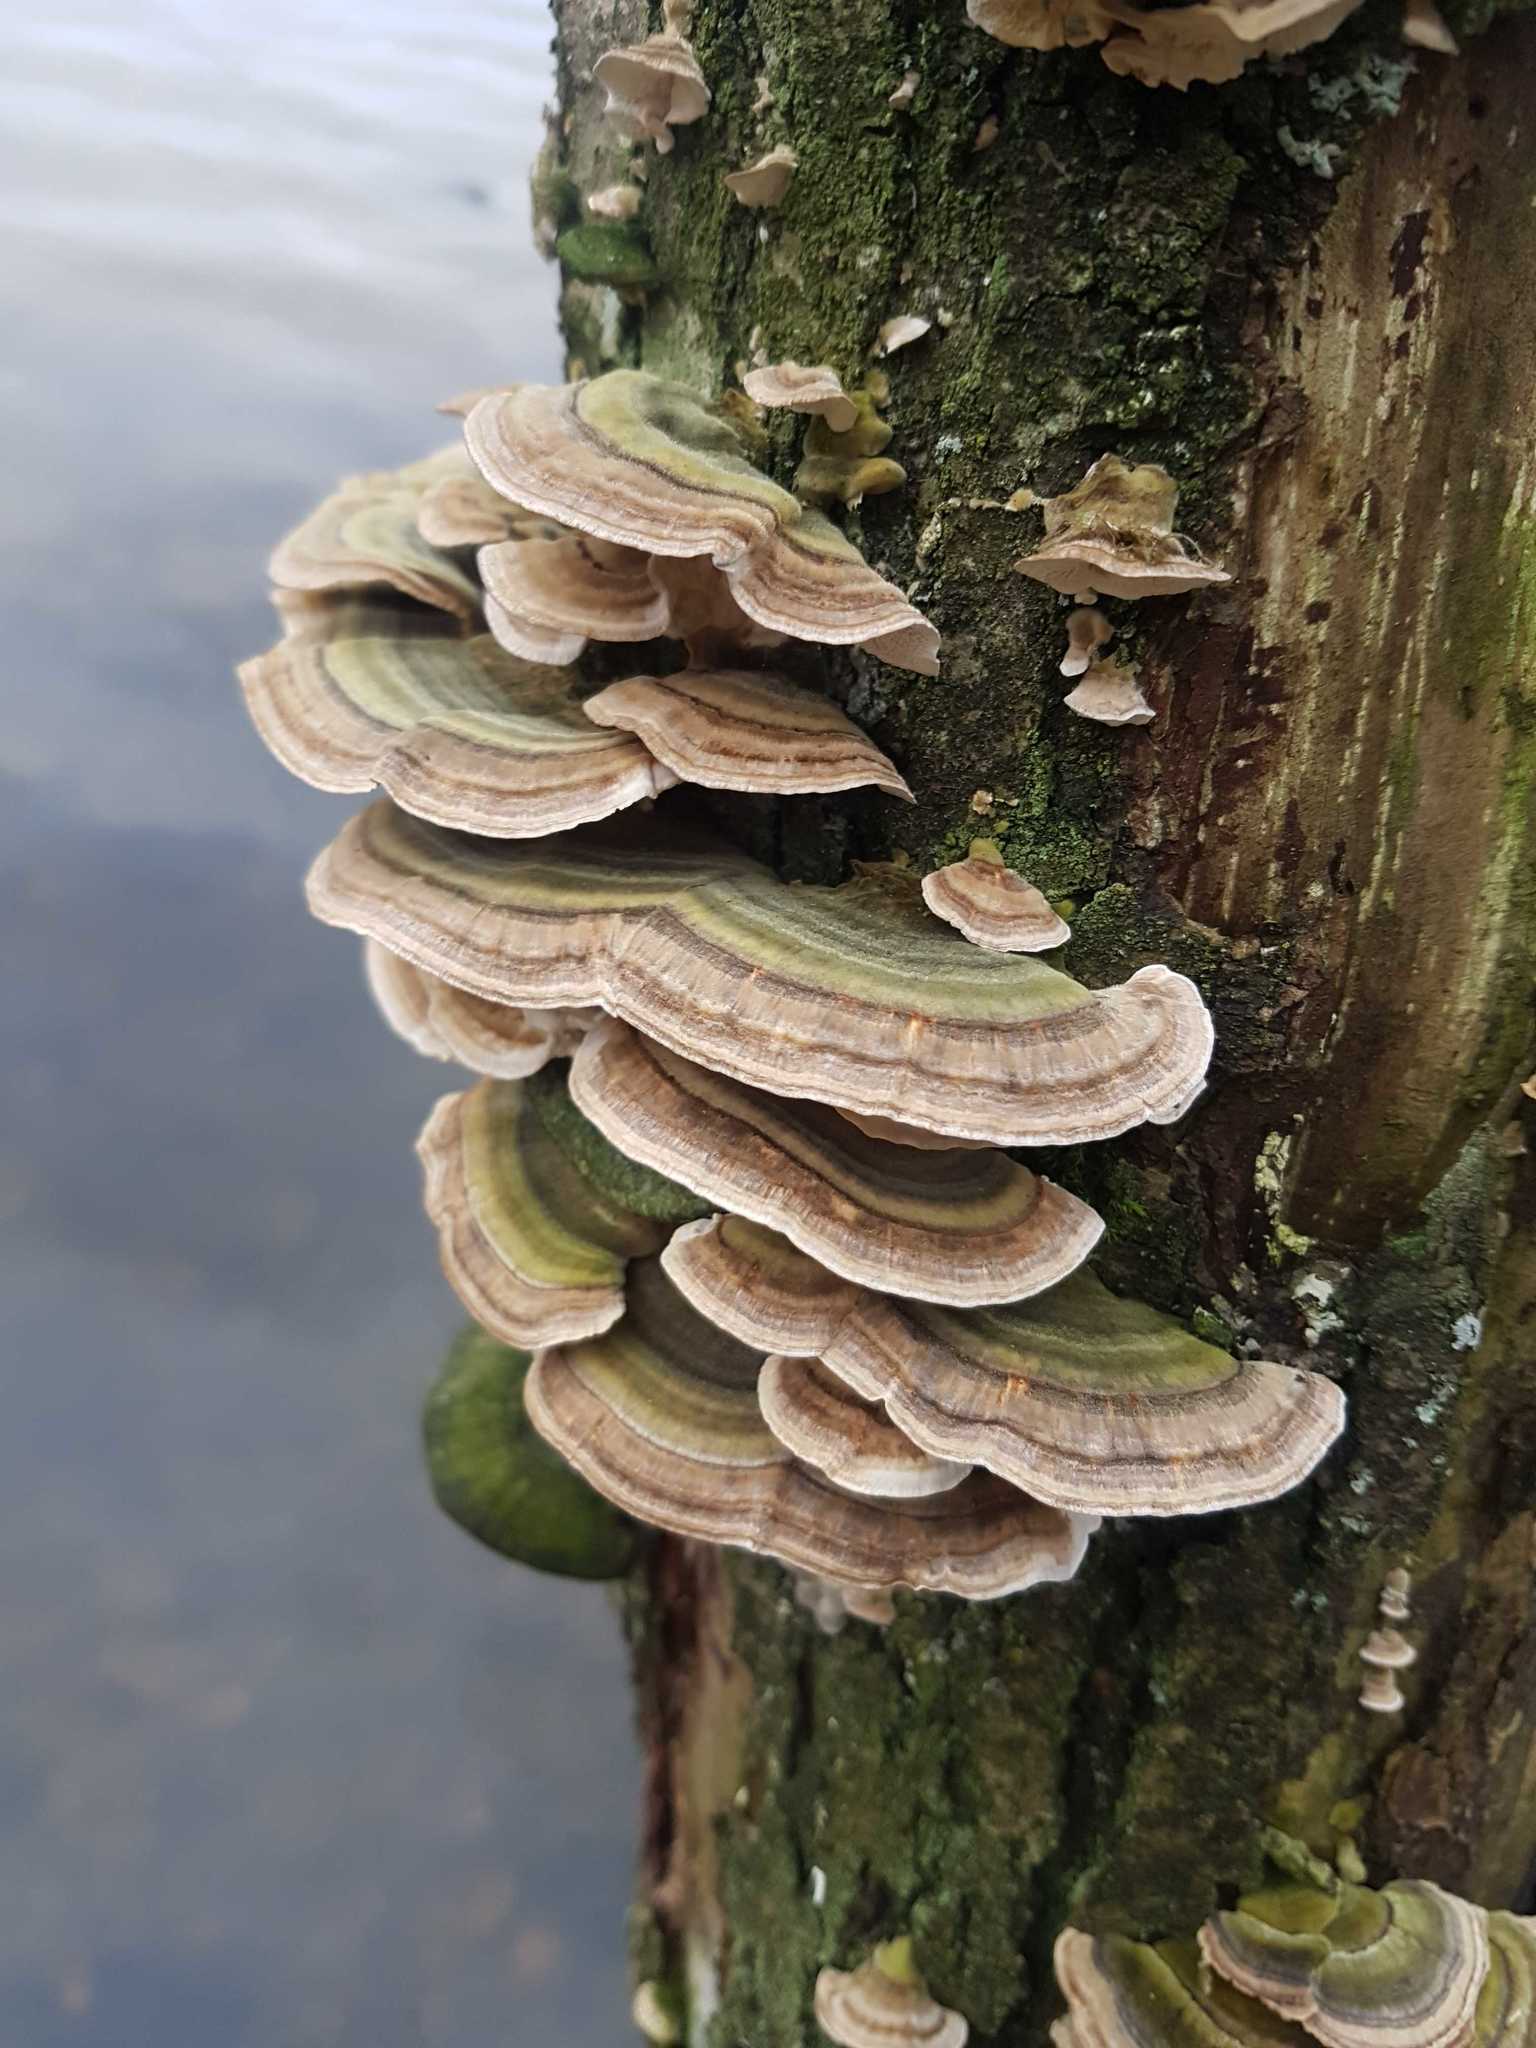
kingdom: Fungi
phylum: Basidiomycota
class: Agaricomycetes
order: Polyporales
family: Polyporaceae
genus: Trametes
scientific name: Trametes versicolor
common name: Turkeytail
